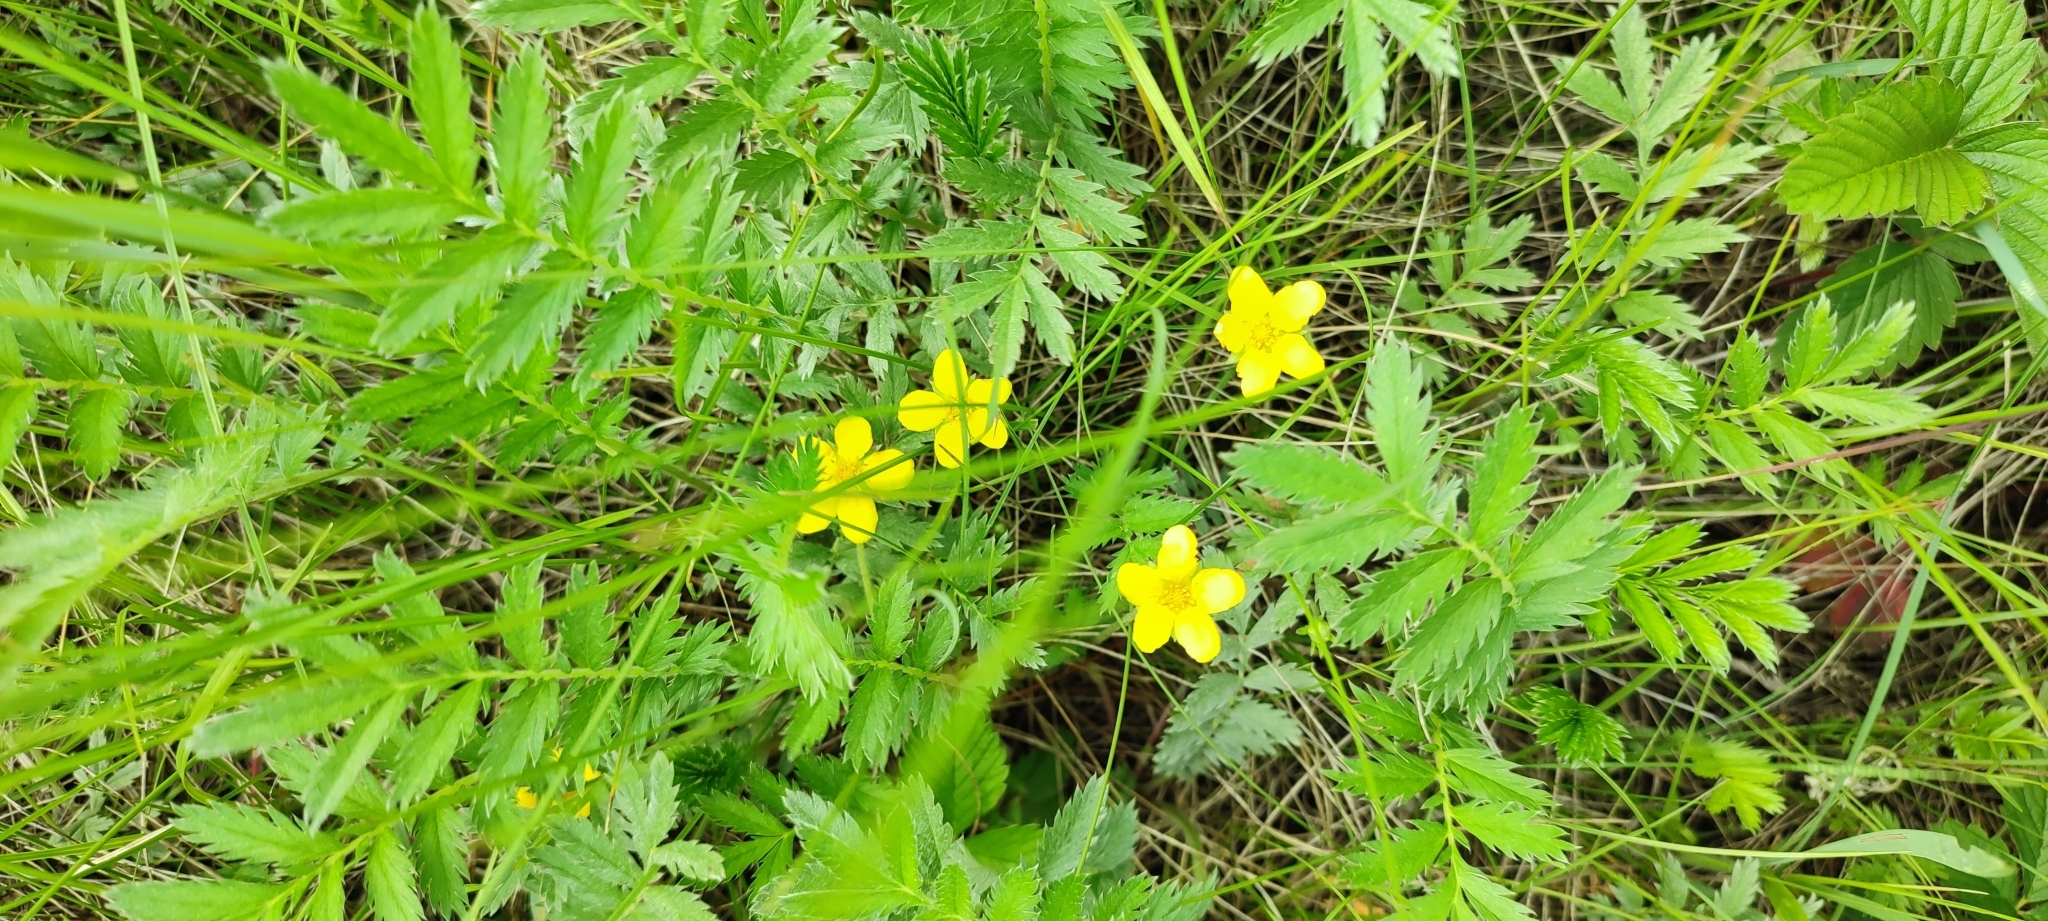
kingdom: Plantae
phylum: Tracheophyta
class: Magnoliopsida
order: Rosales
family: Rosaceae
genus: Argentina
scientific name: Argentina anserina
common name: Common silverweed
